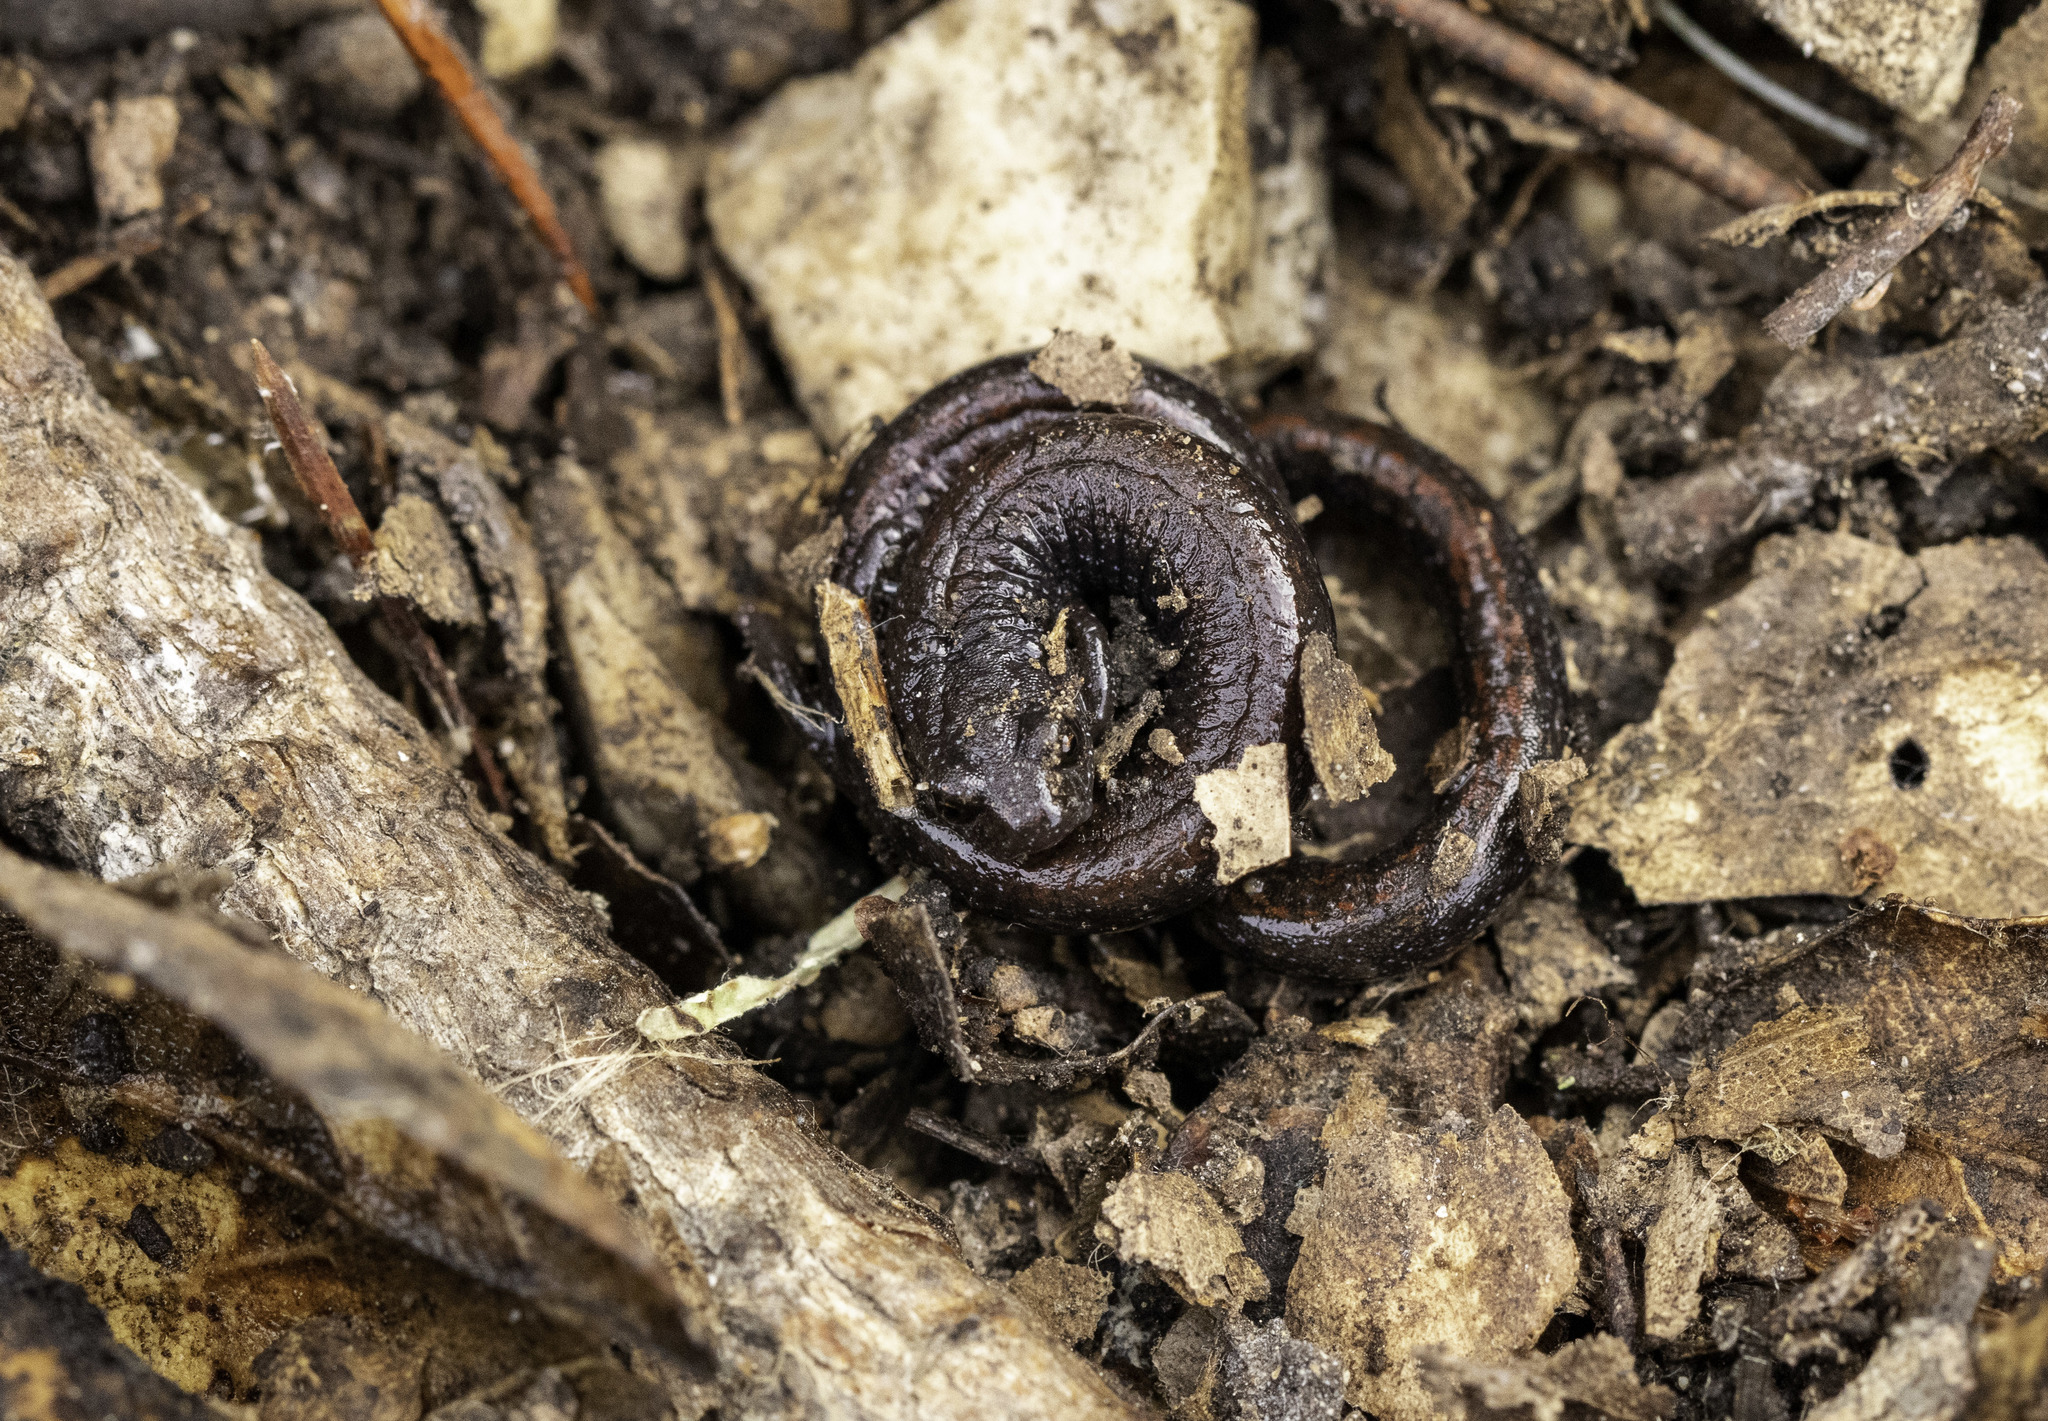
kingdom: Animalia
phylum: Chordata
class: Amphibia
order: Caudata
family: Plethodontidae
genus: Batrachoseps
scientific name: Batrachoseps nigriventris
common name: Black-bellied slender salamander
